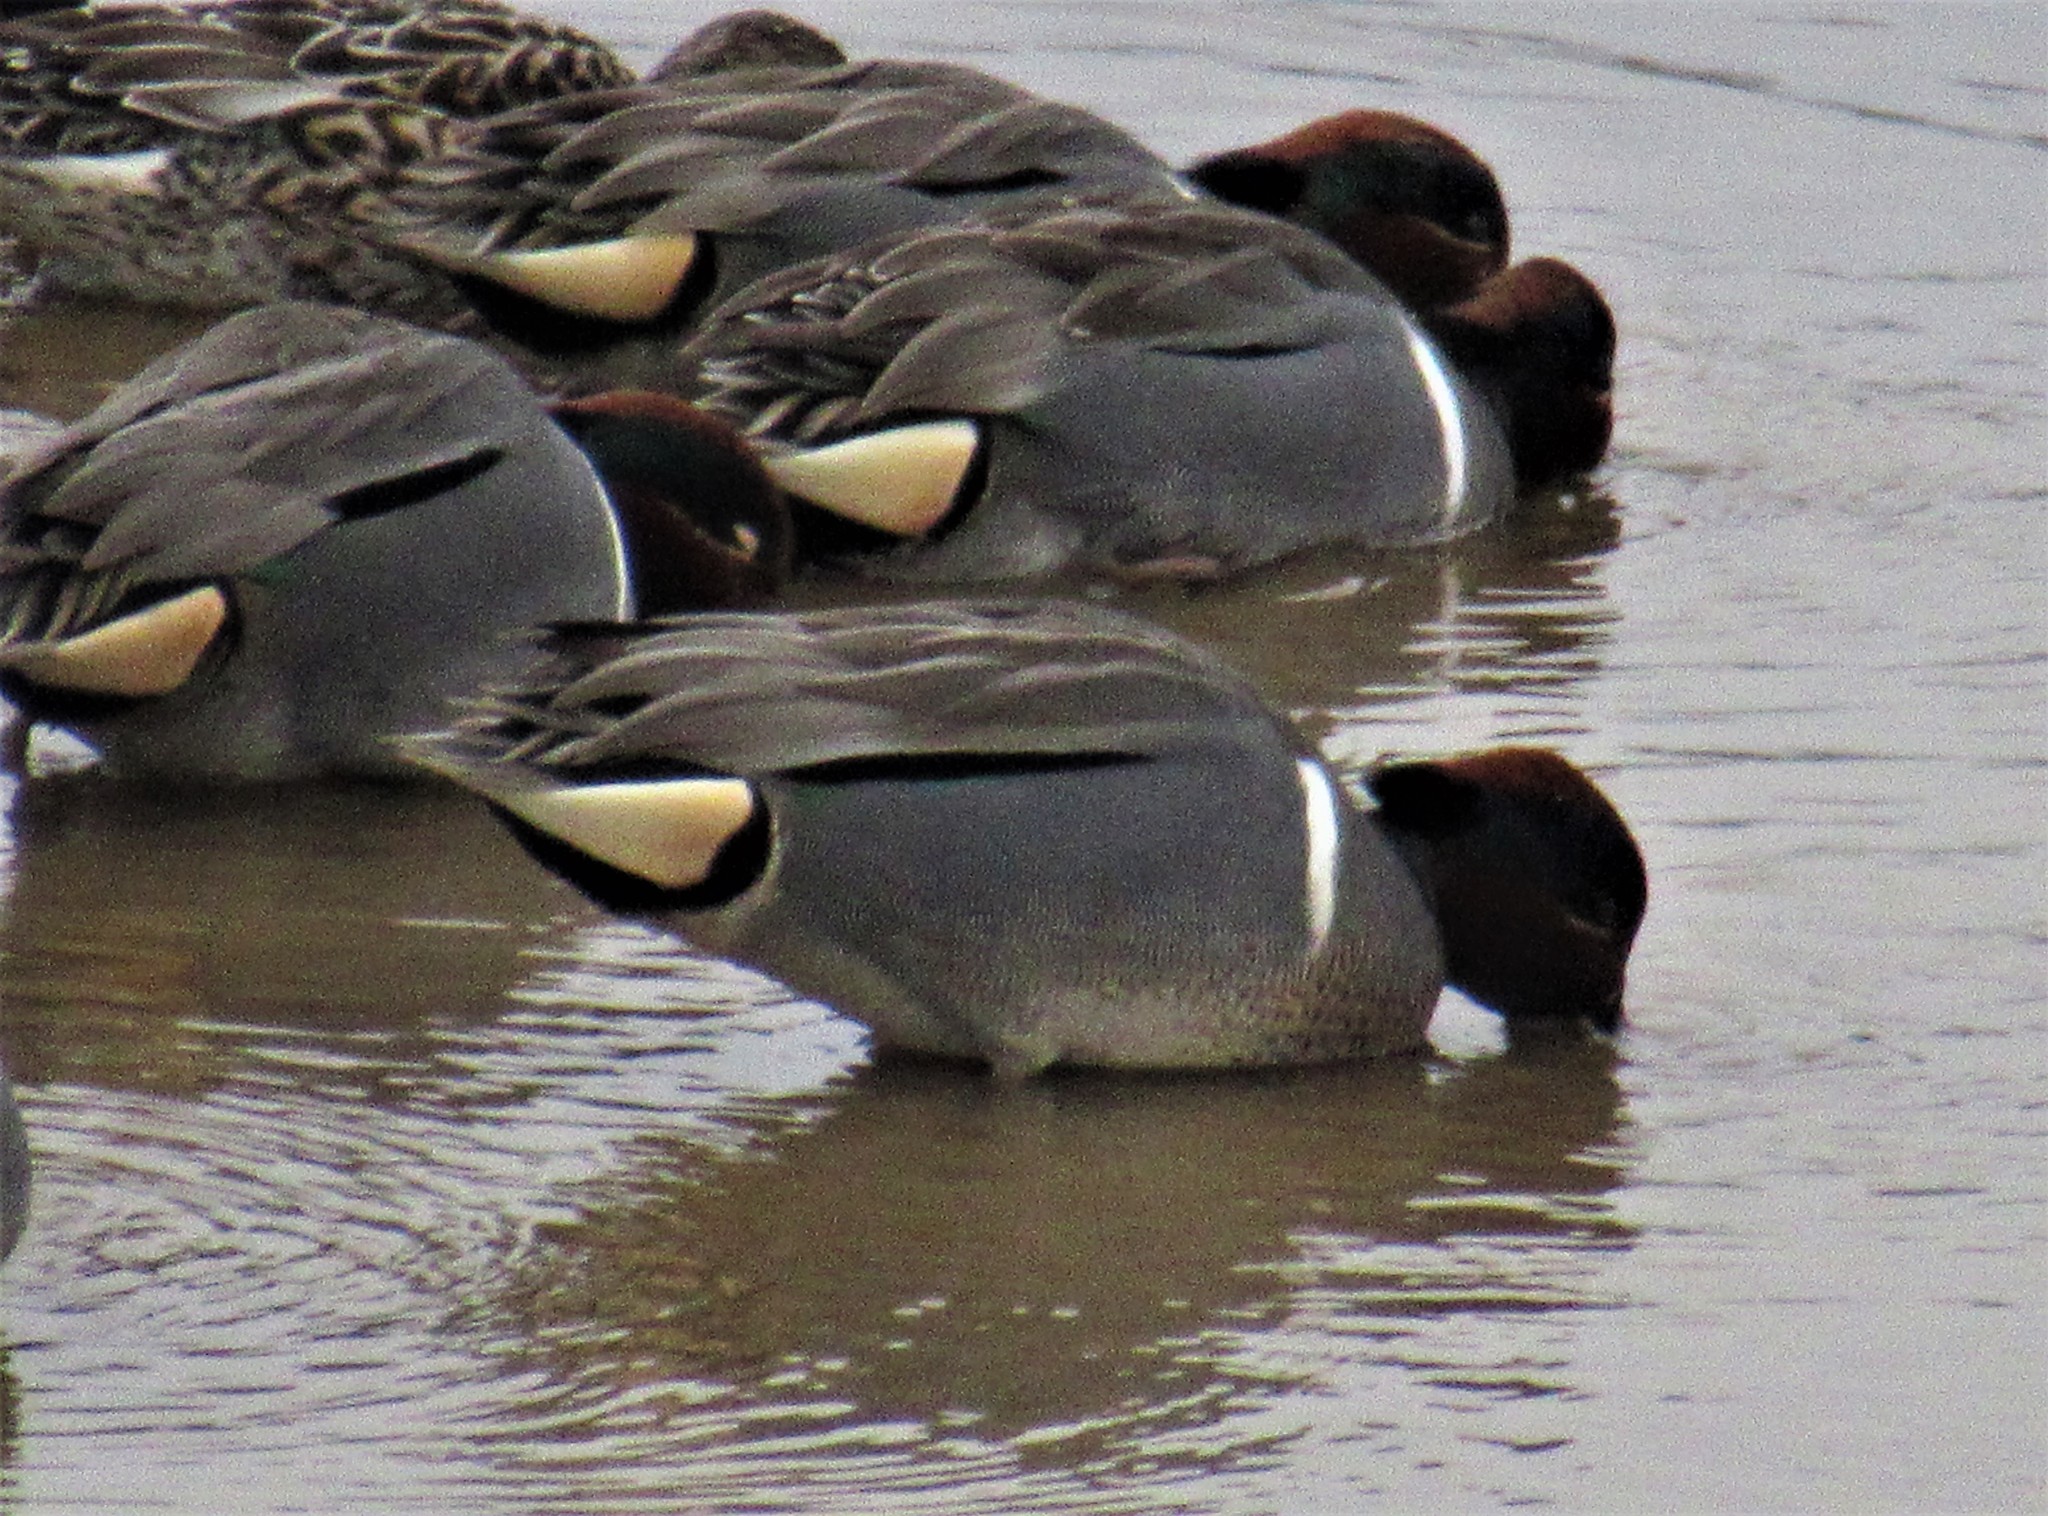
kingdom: Animalia
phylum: Chordata
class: Aves
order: Anseriformes
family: Anatidae
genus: Anas
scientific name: Anas carolinensis
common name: Green-winged teal
